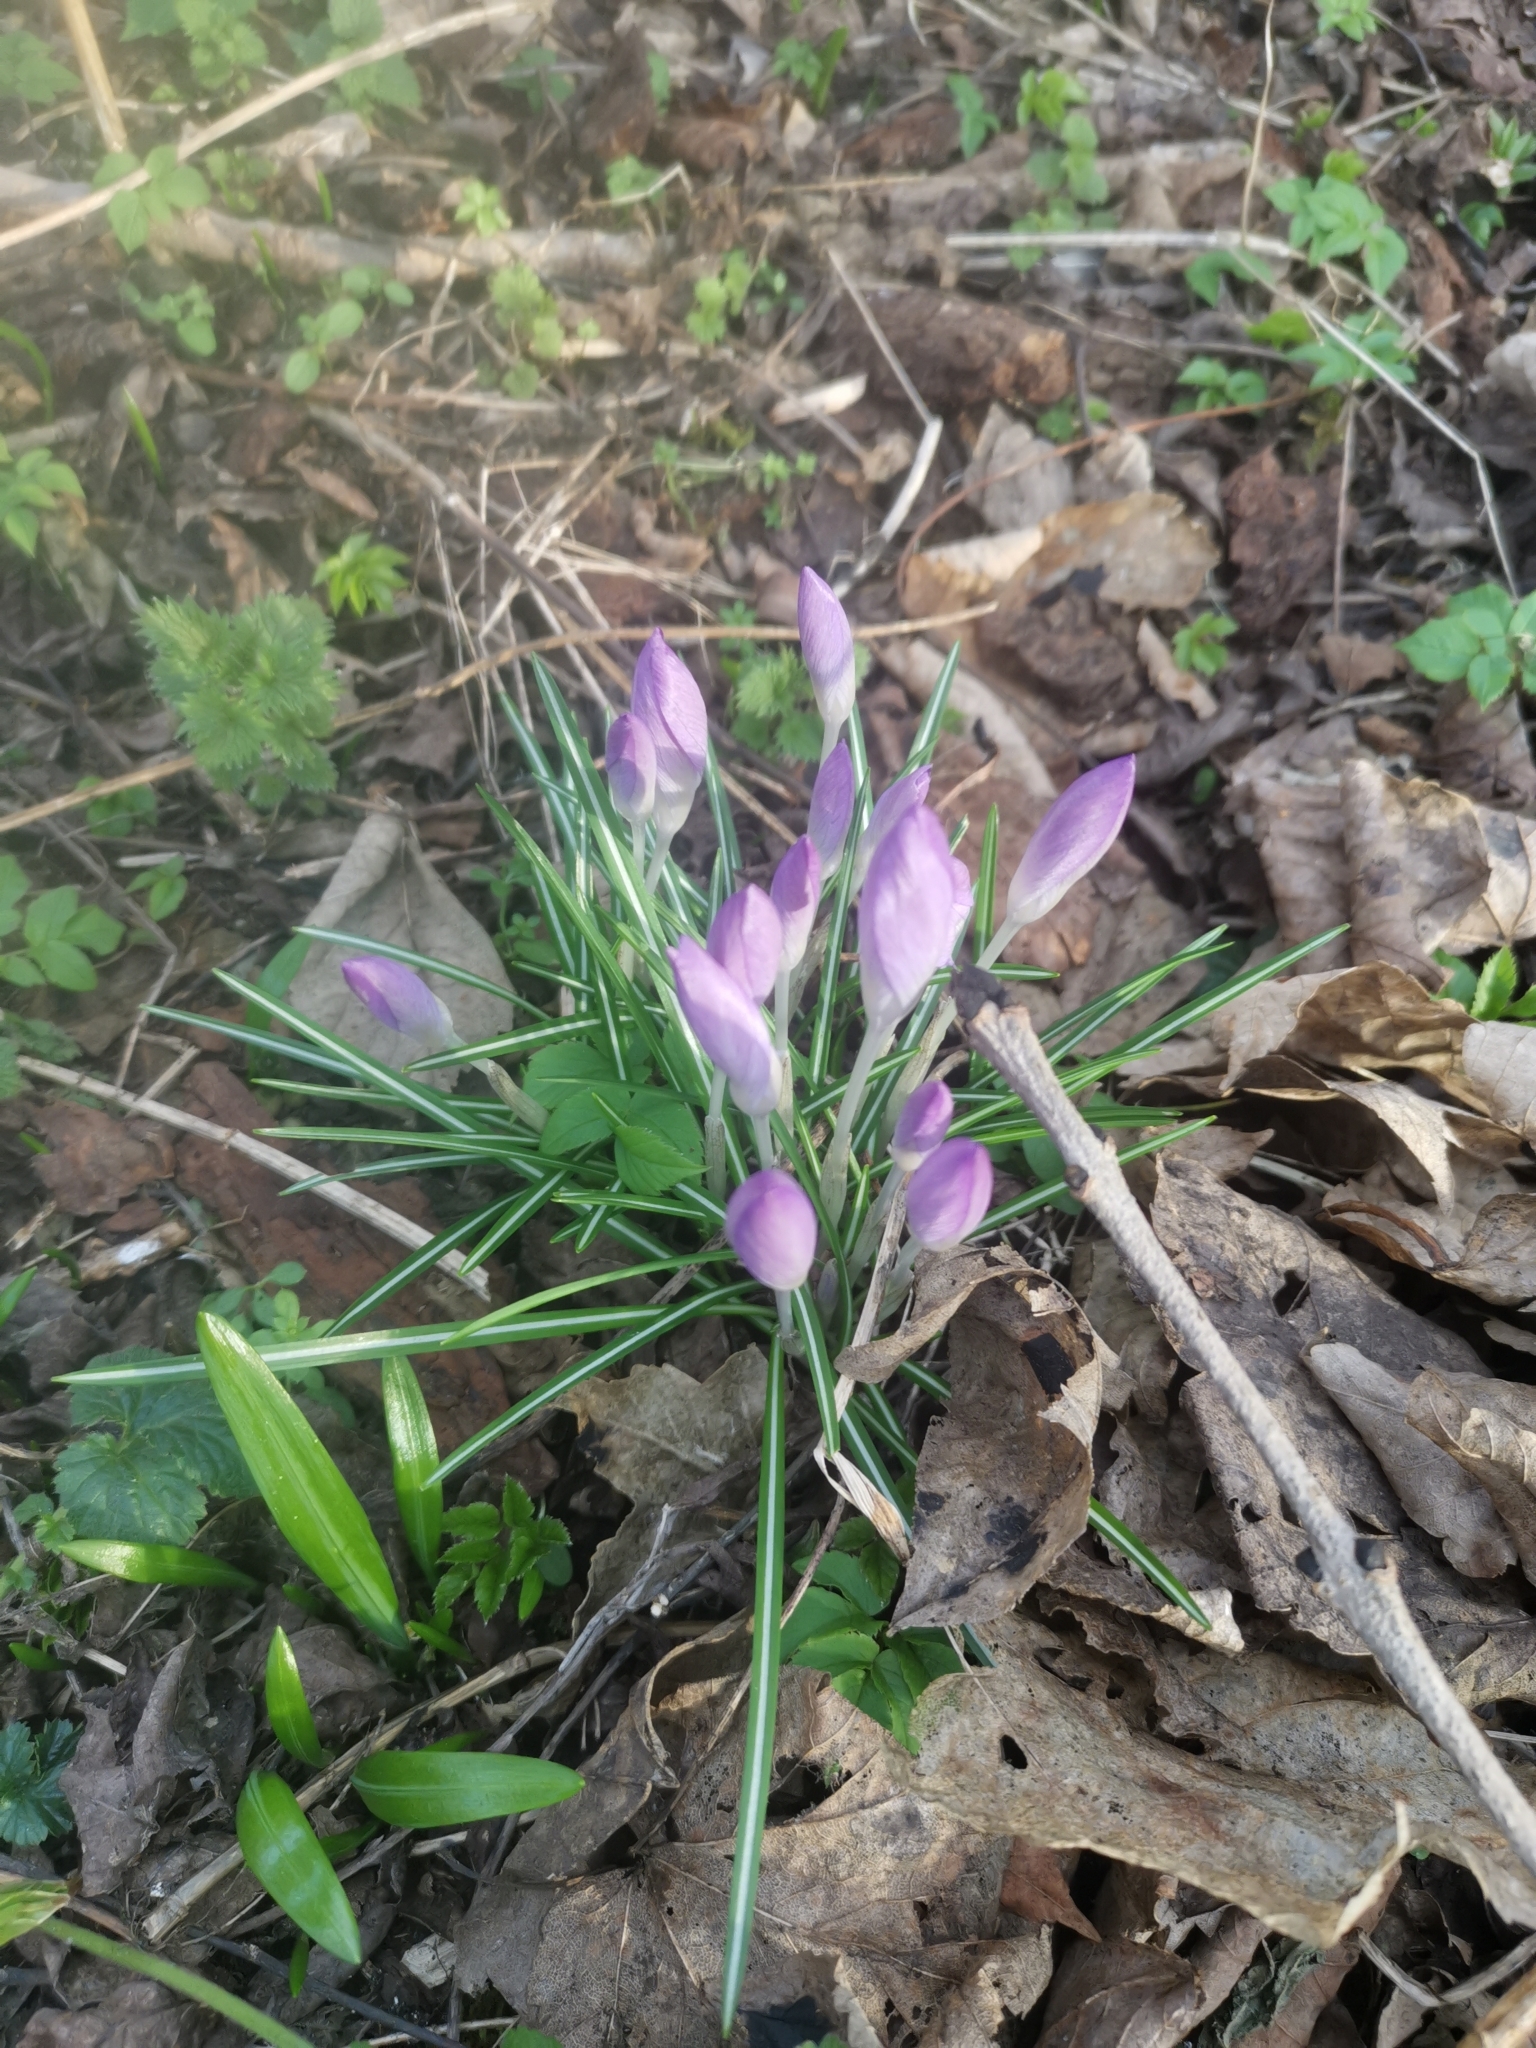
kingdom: Plantae
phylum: Tracheophyta
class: Liliopsida
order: Asparagales
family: Iridaceae
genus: Crocus
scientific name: Crocus tommasinianus
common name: Early crocus
